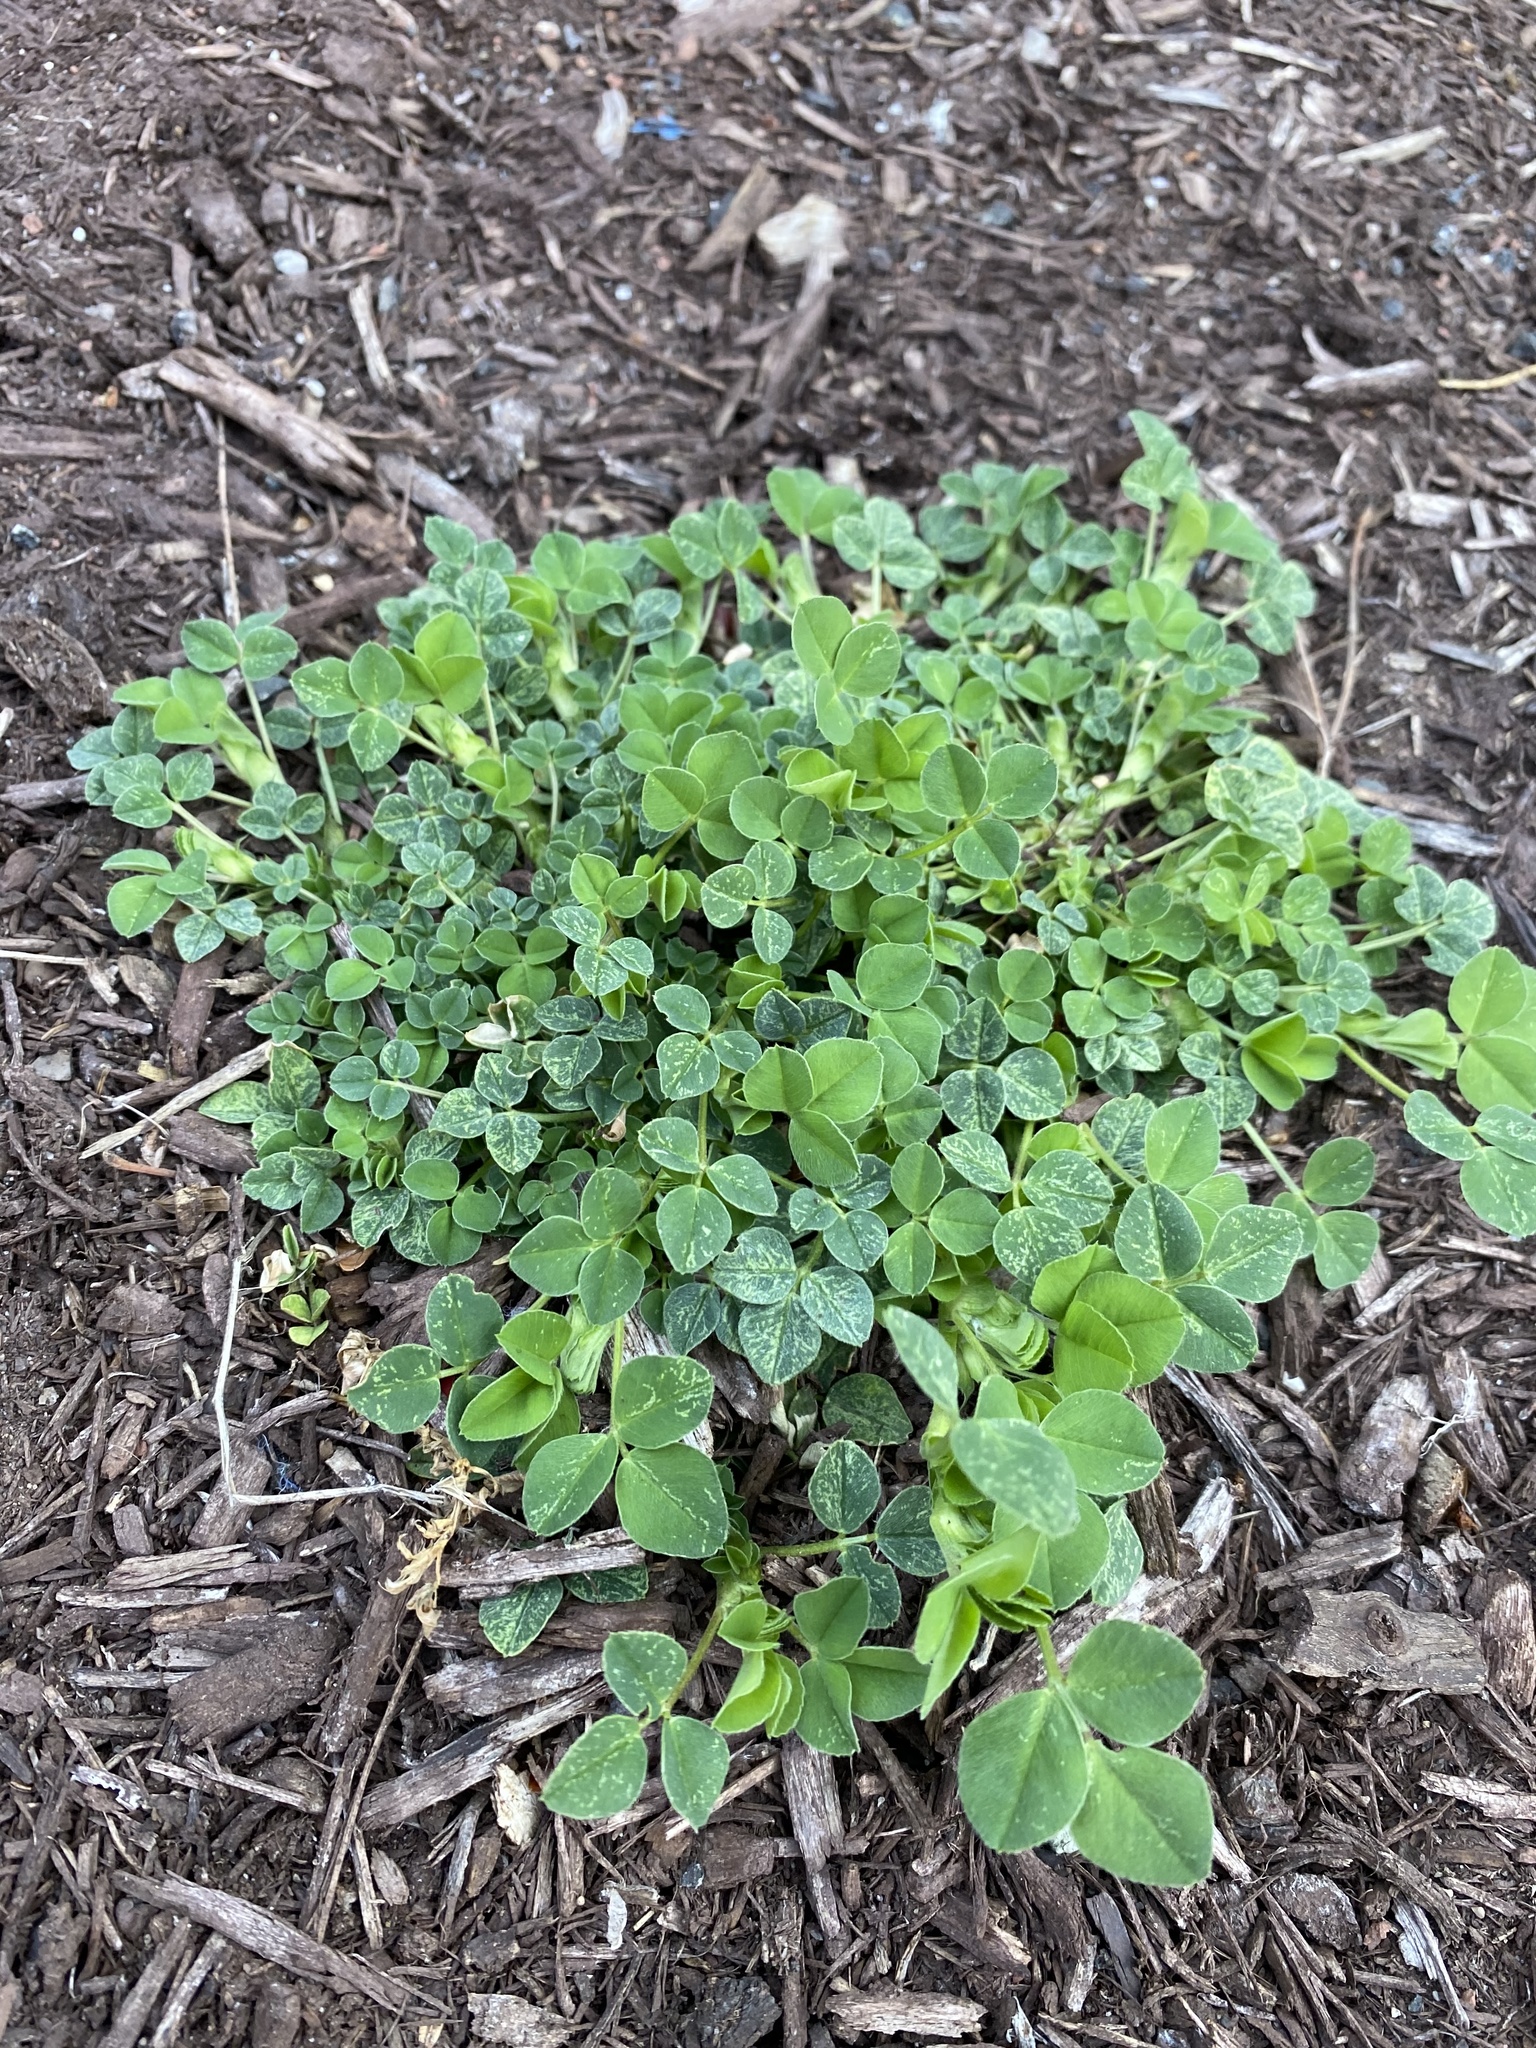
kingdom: Plantae
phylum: Tracheophyta
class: Magnoliopsida
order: Fabales
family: Fabaceae
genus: Trifolium
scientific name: Trifolium repens
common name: White clover
